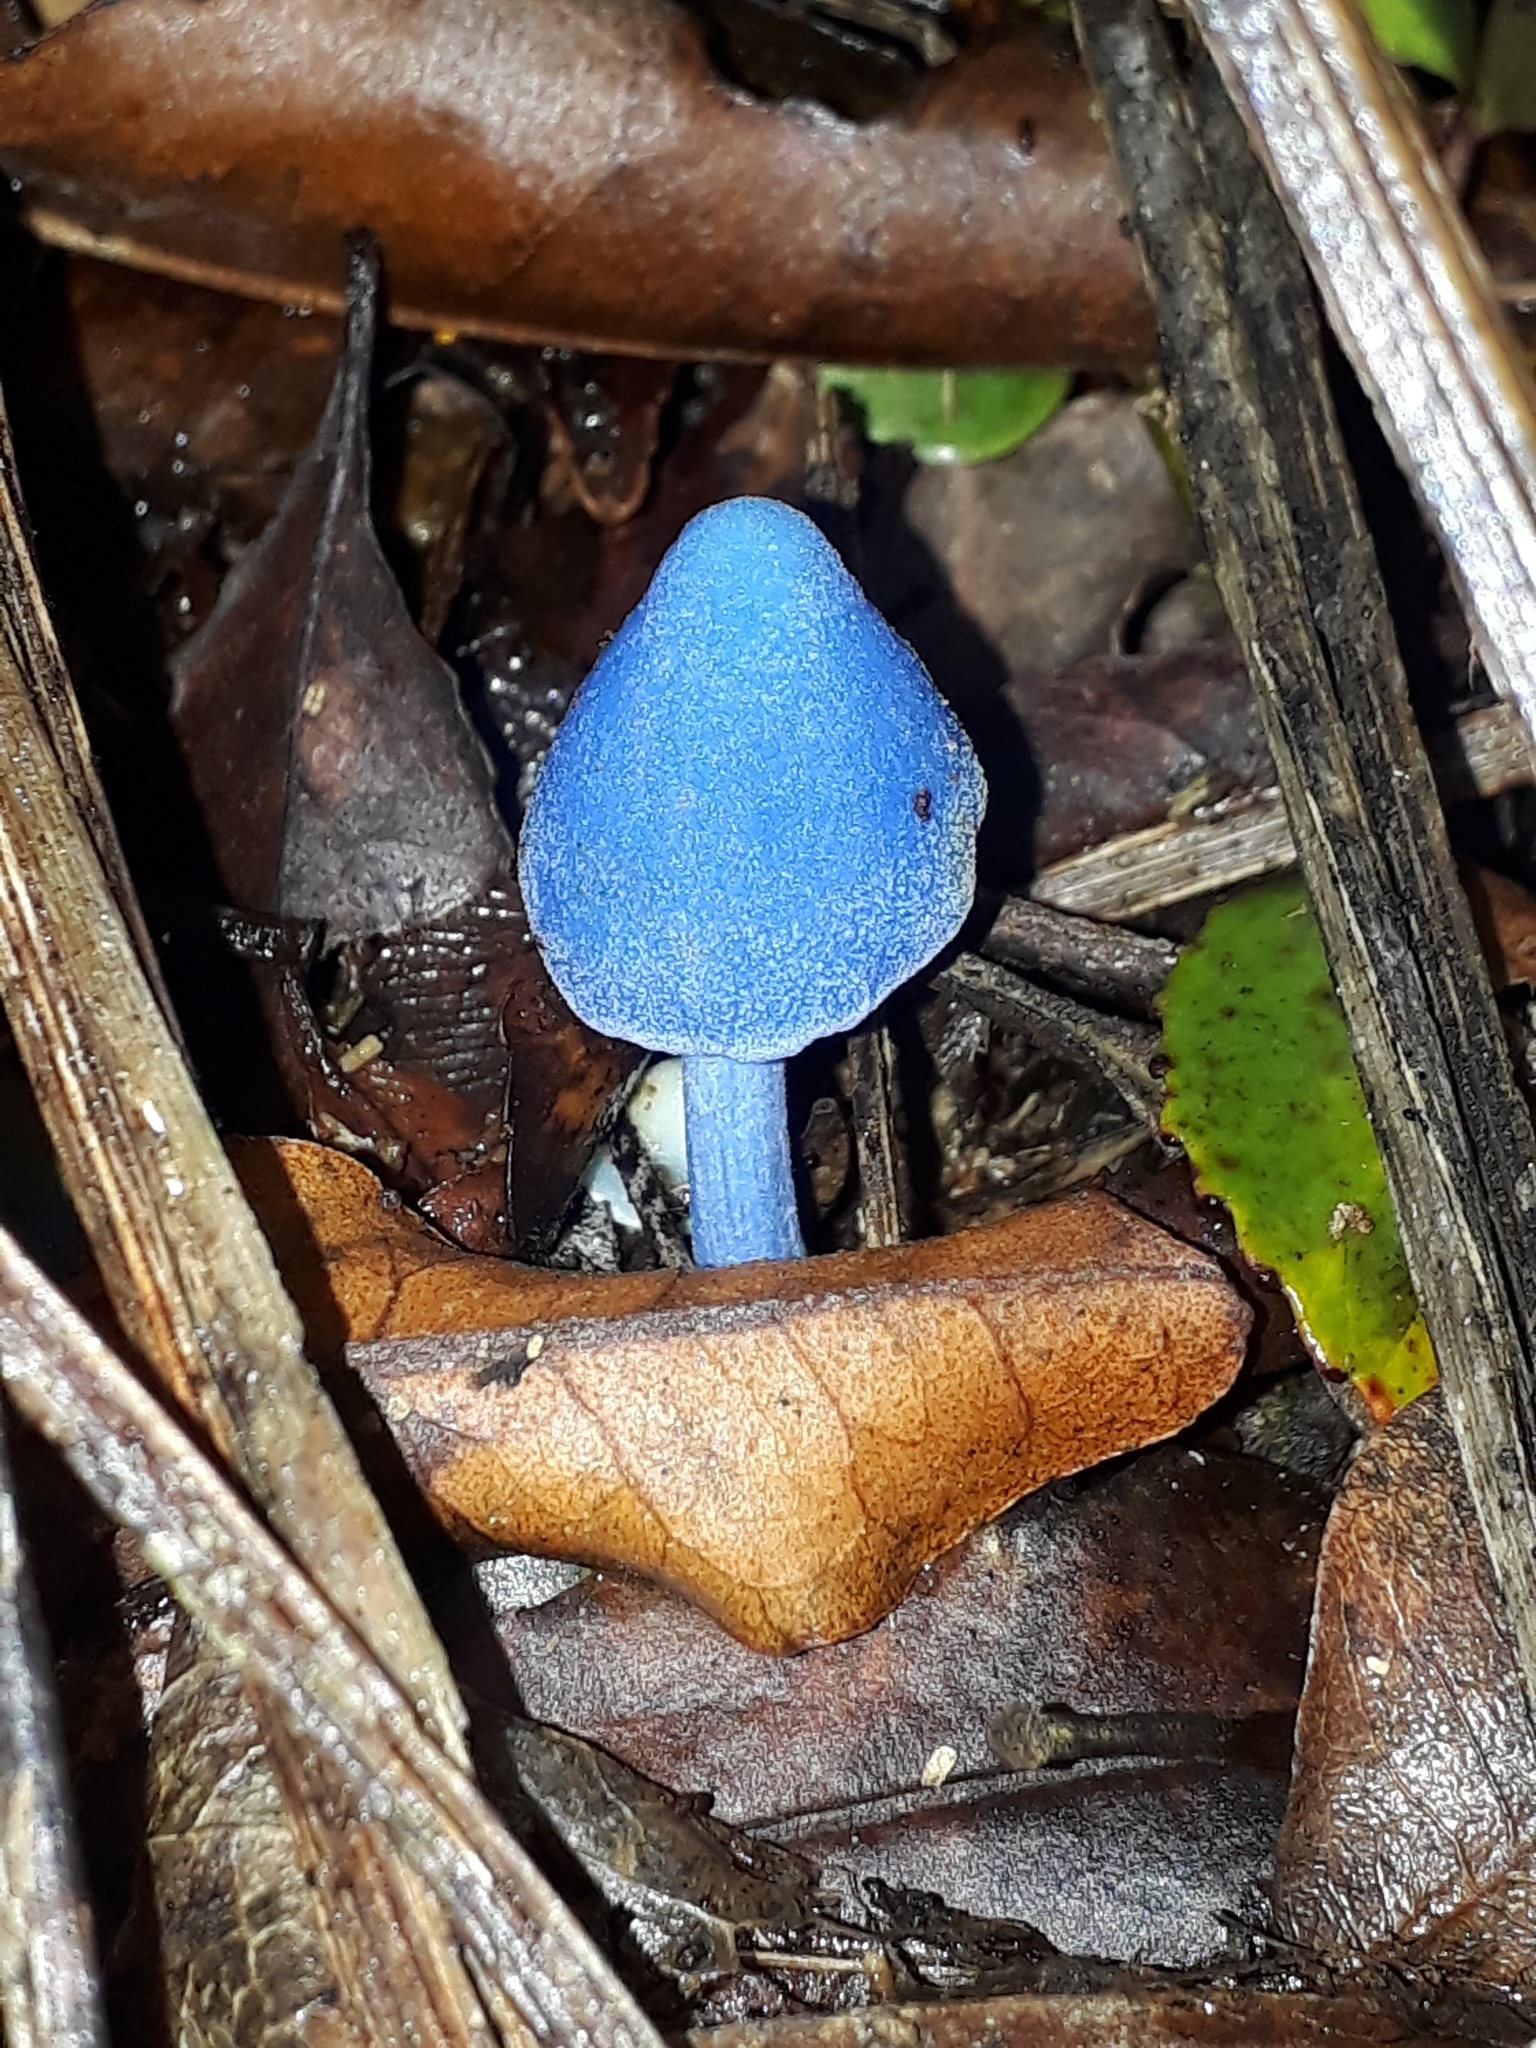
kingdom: Fungi
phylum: Basidiomycota
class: Agaricomycetes
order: Agaricales
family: Entolomataceae
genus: Entoloma
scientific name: Entoloma hochstetteri
